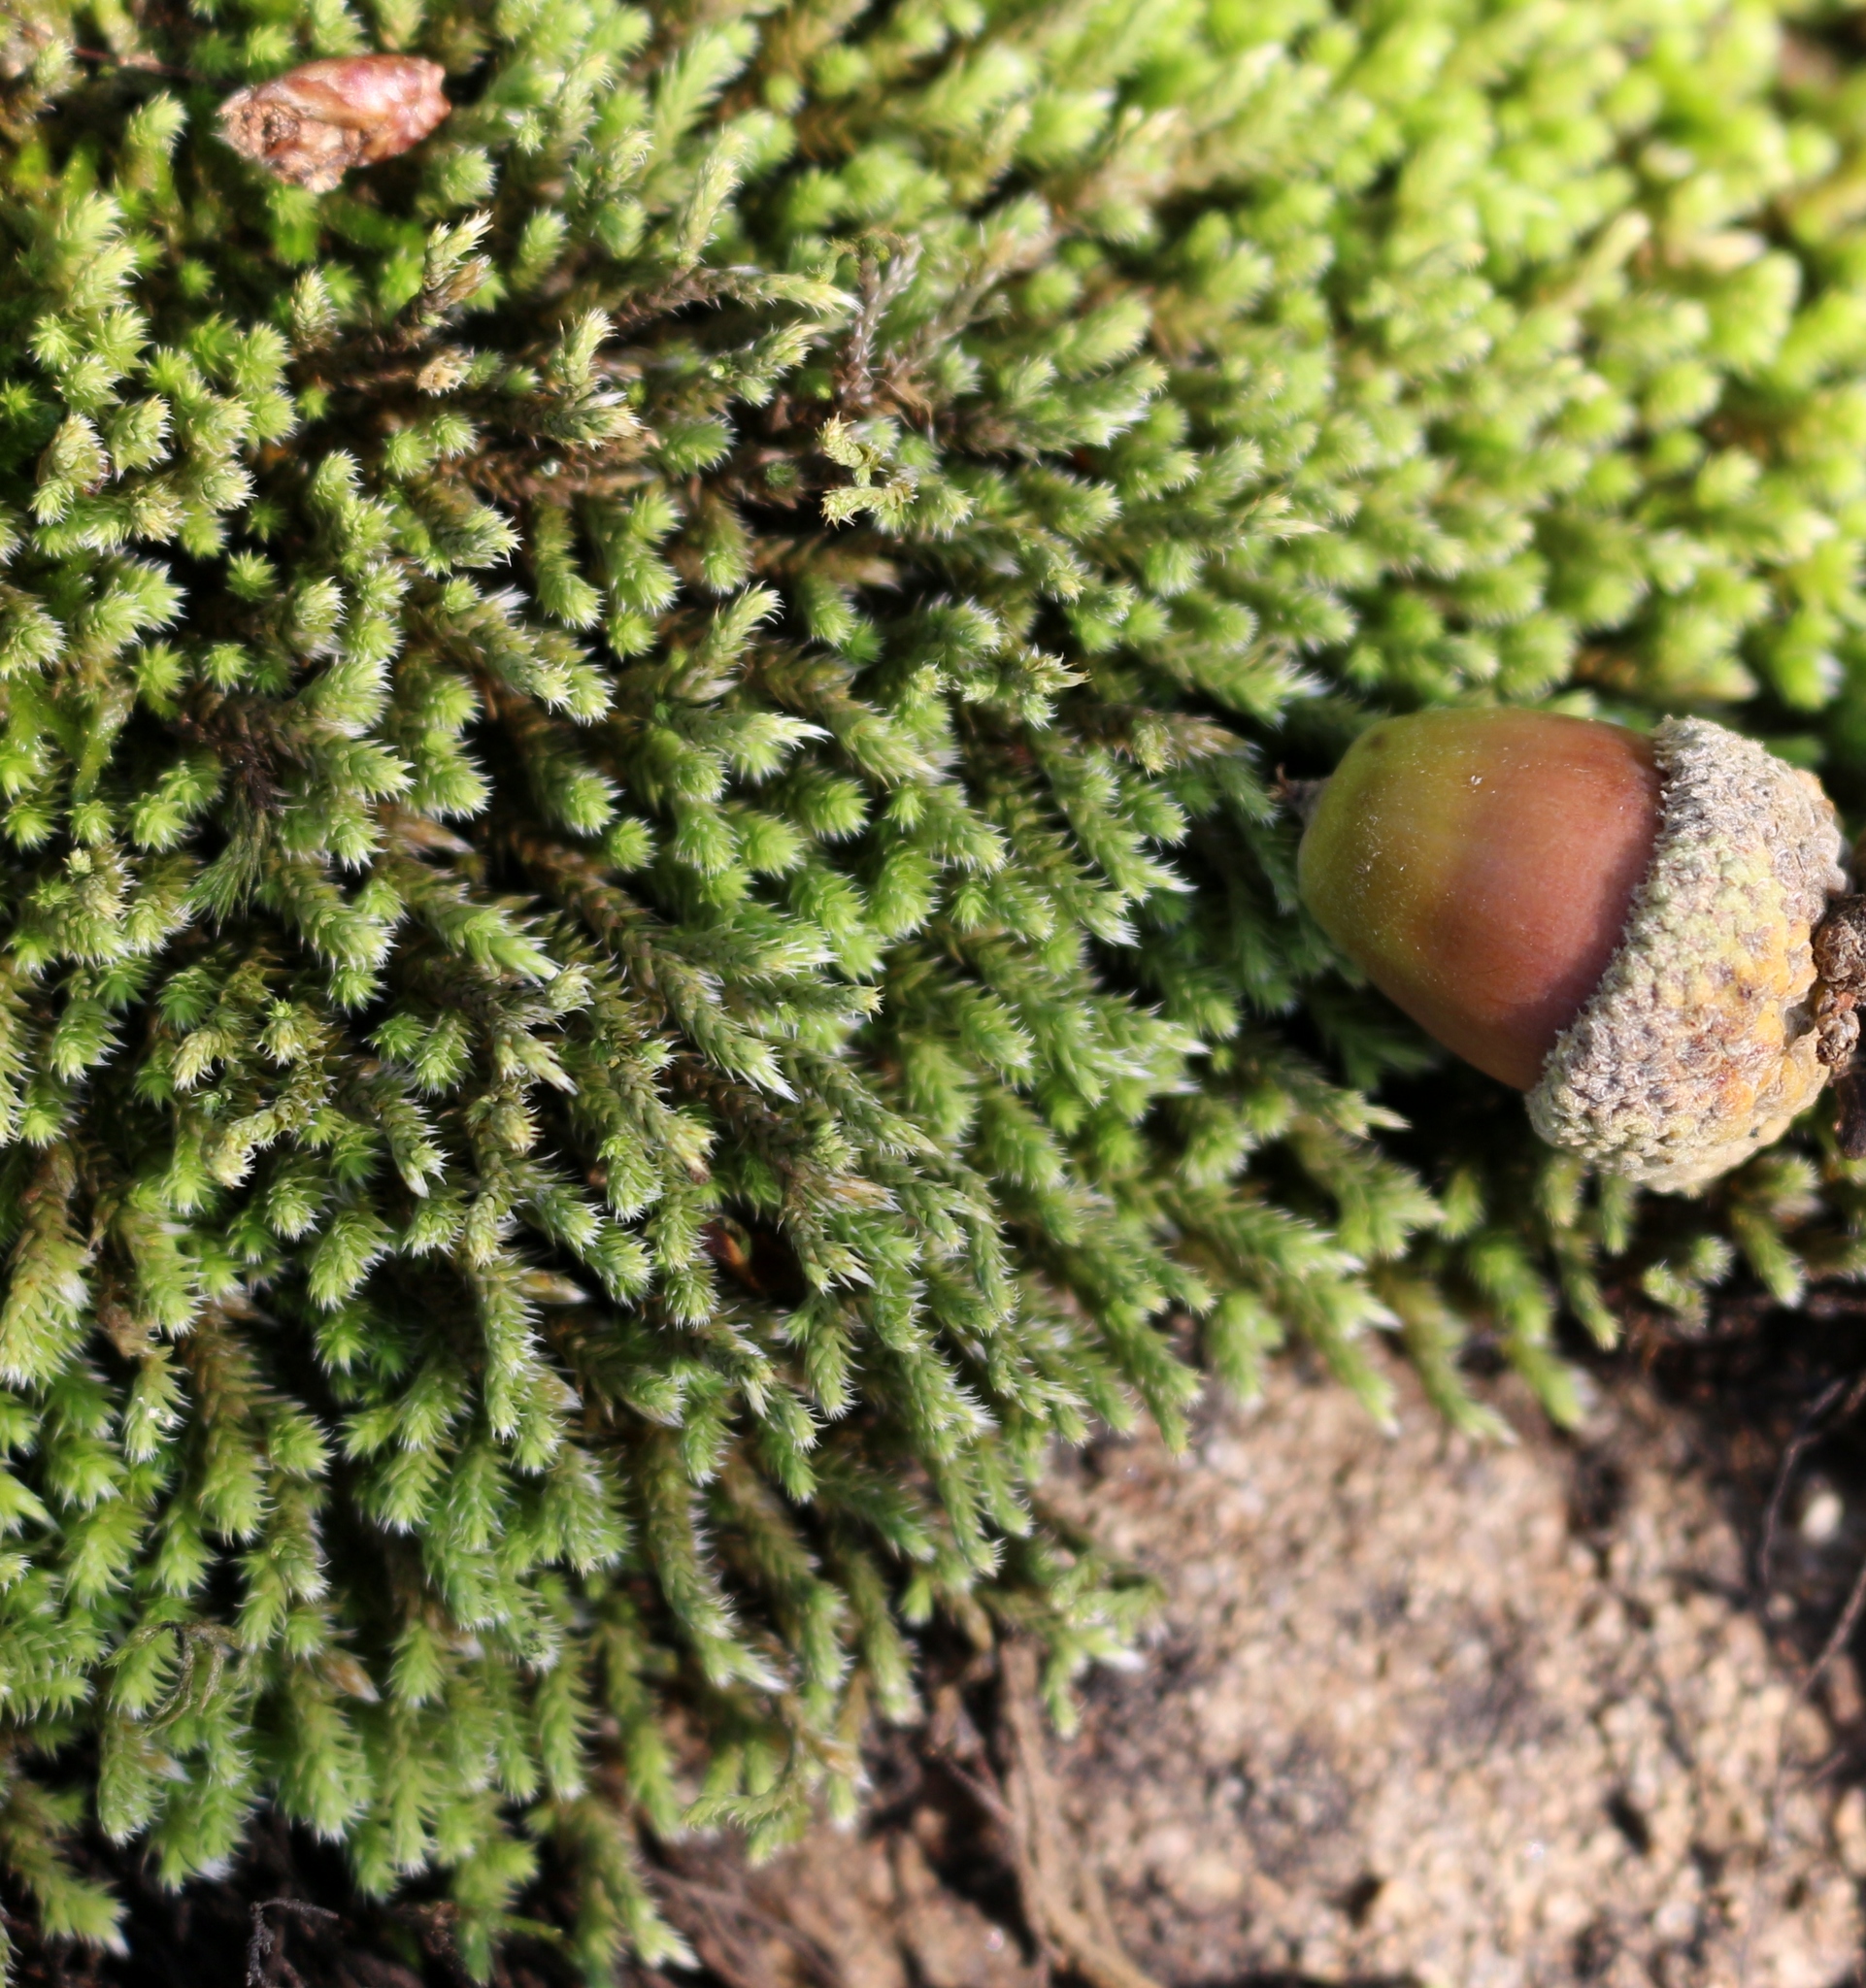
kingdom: Plantae
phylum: Bryophyta
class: Bryopsida
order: Hedwigiales
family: Hedwigiaceae
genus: Hedwigia
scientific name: Hedwigia ciliata
